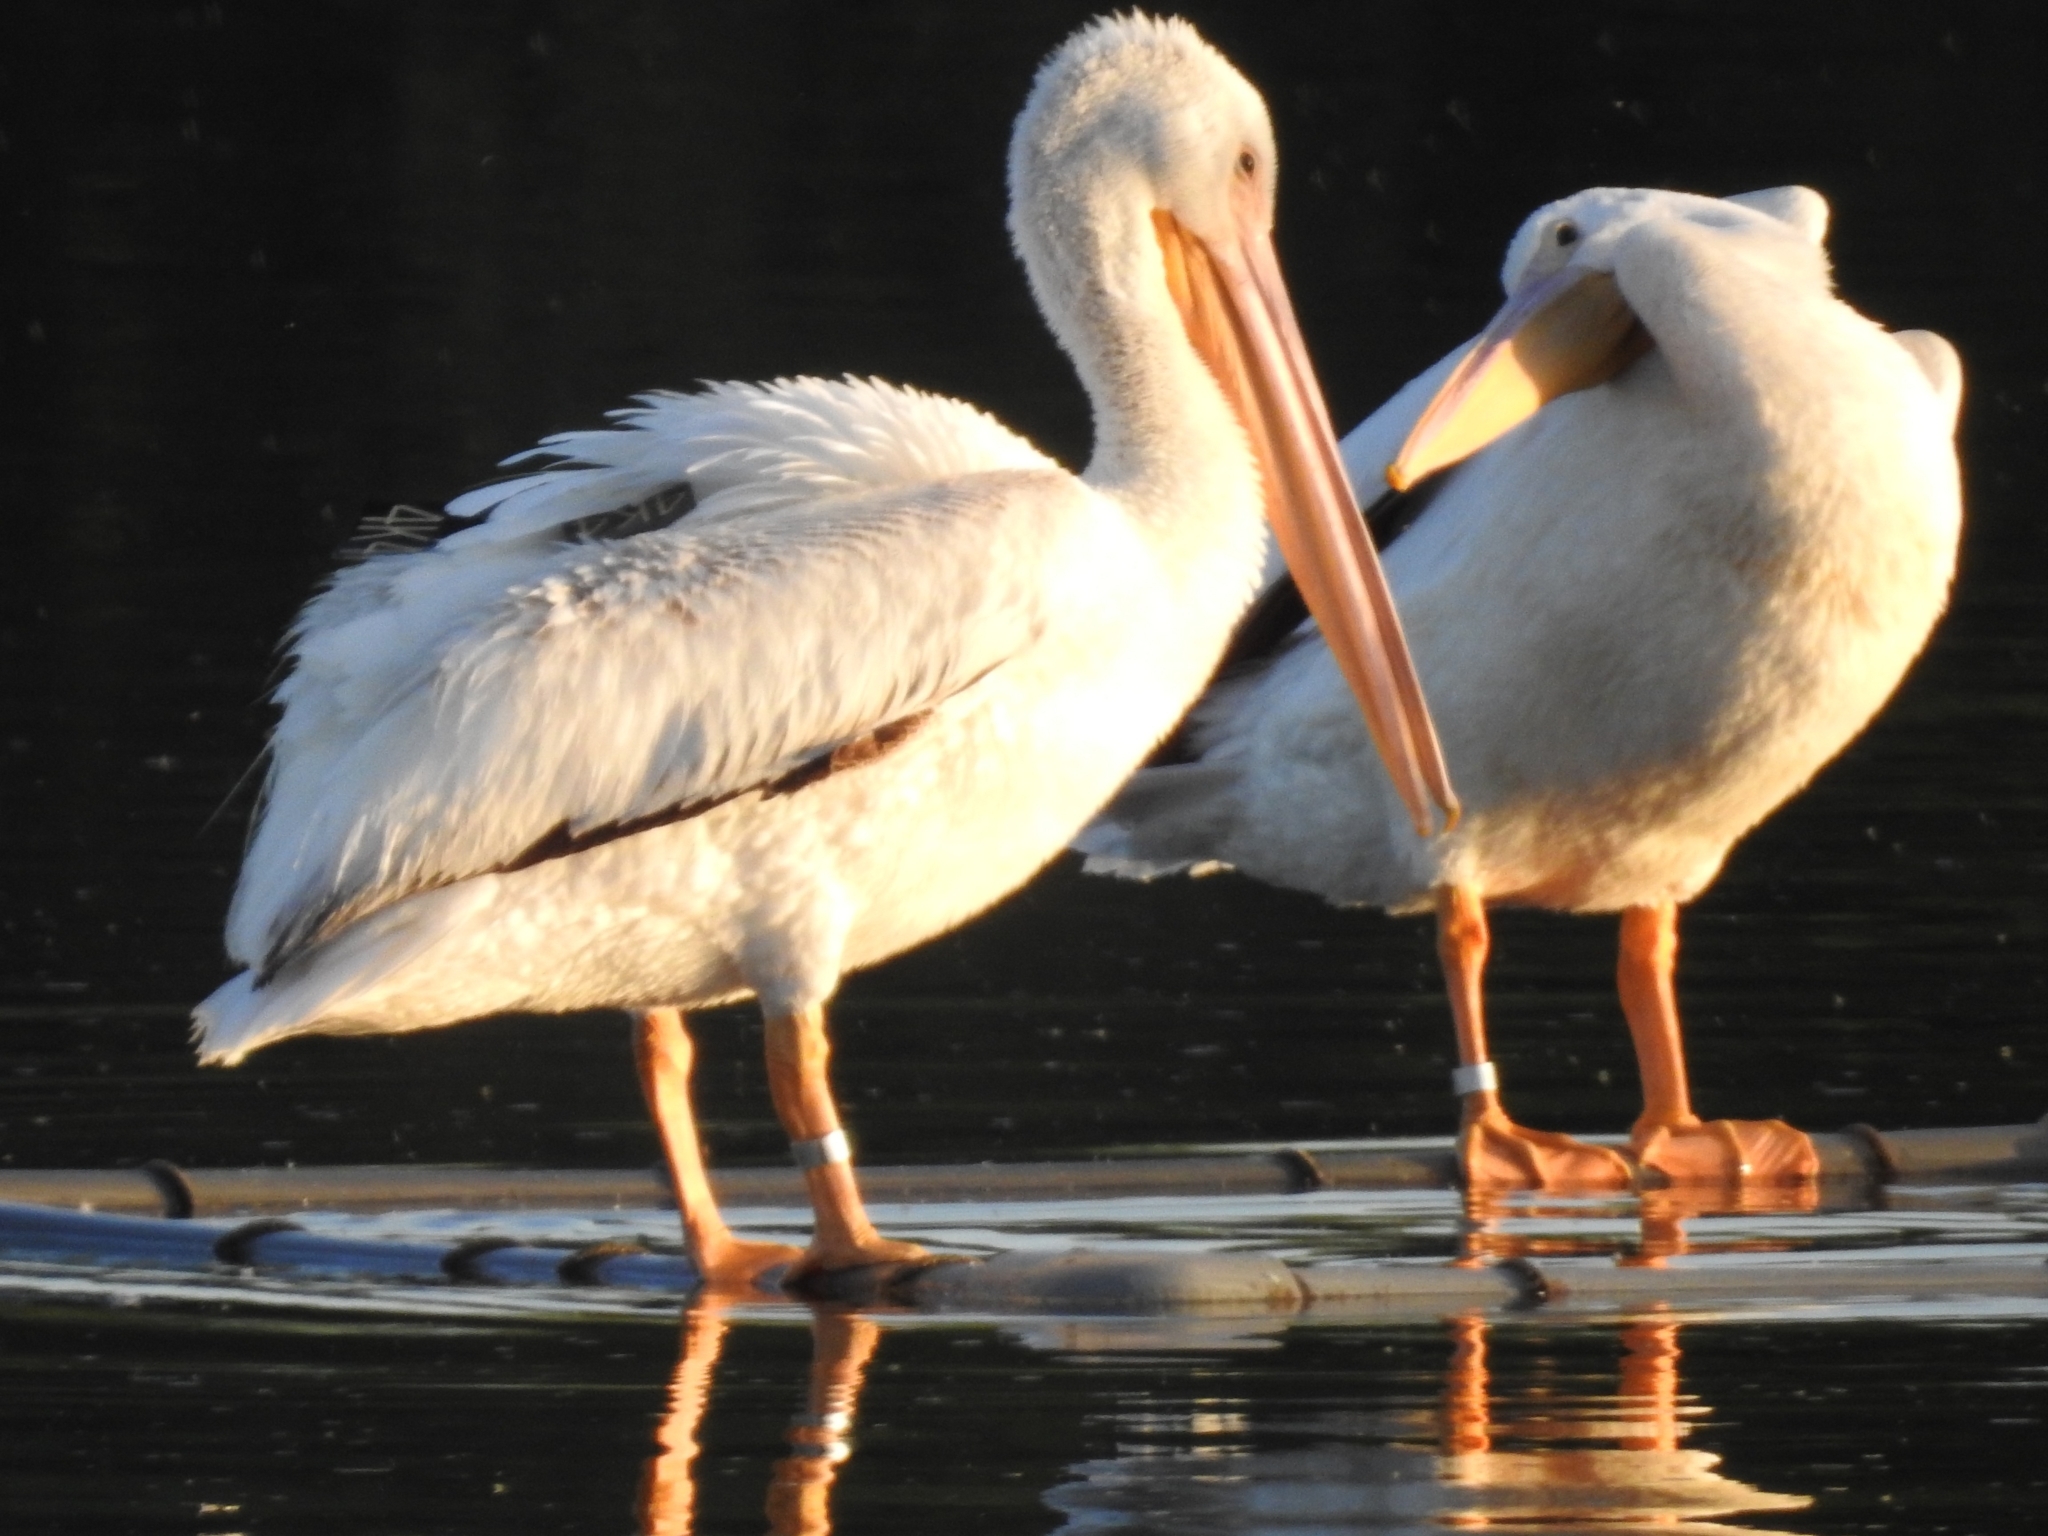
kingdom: Animalia
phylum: Chordata
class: Aves
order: Pelecaniformes
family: Pelecanidae
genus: Pelecanus
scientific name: Pelecanus erythrorhynchos
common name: American white pelican
